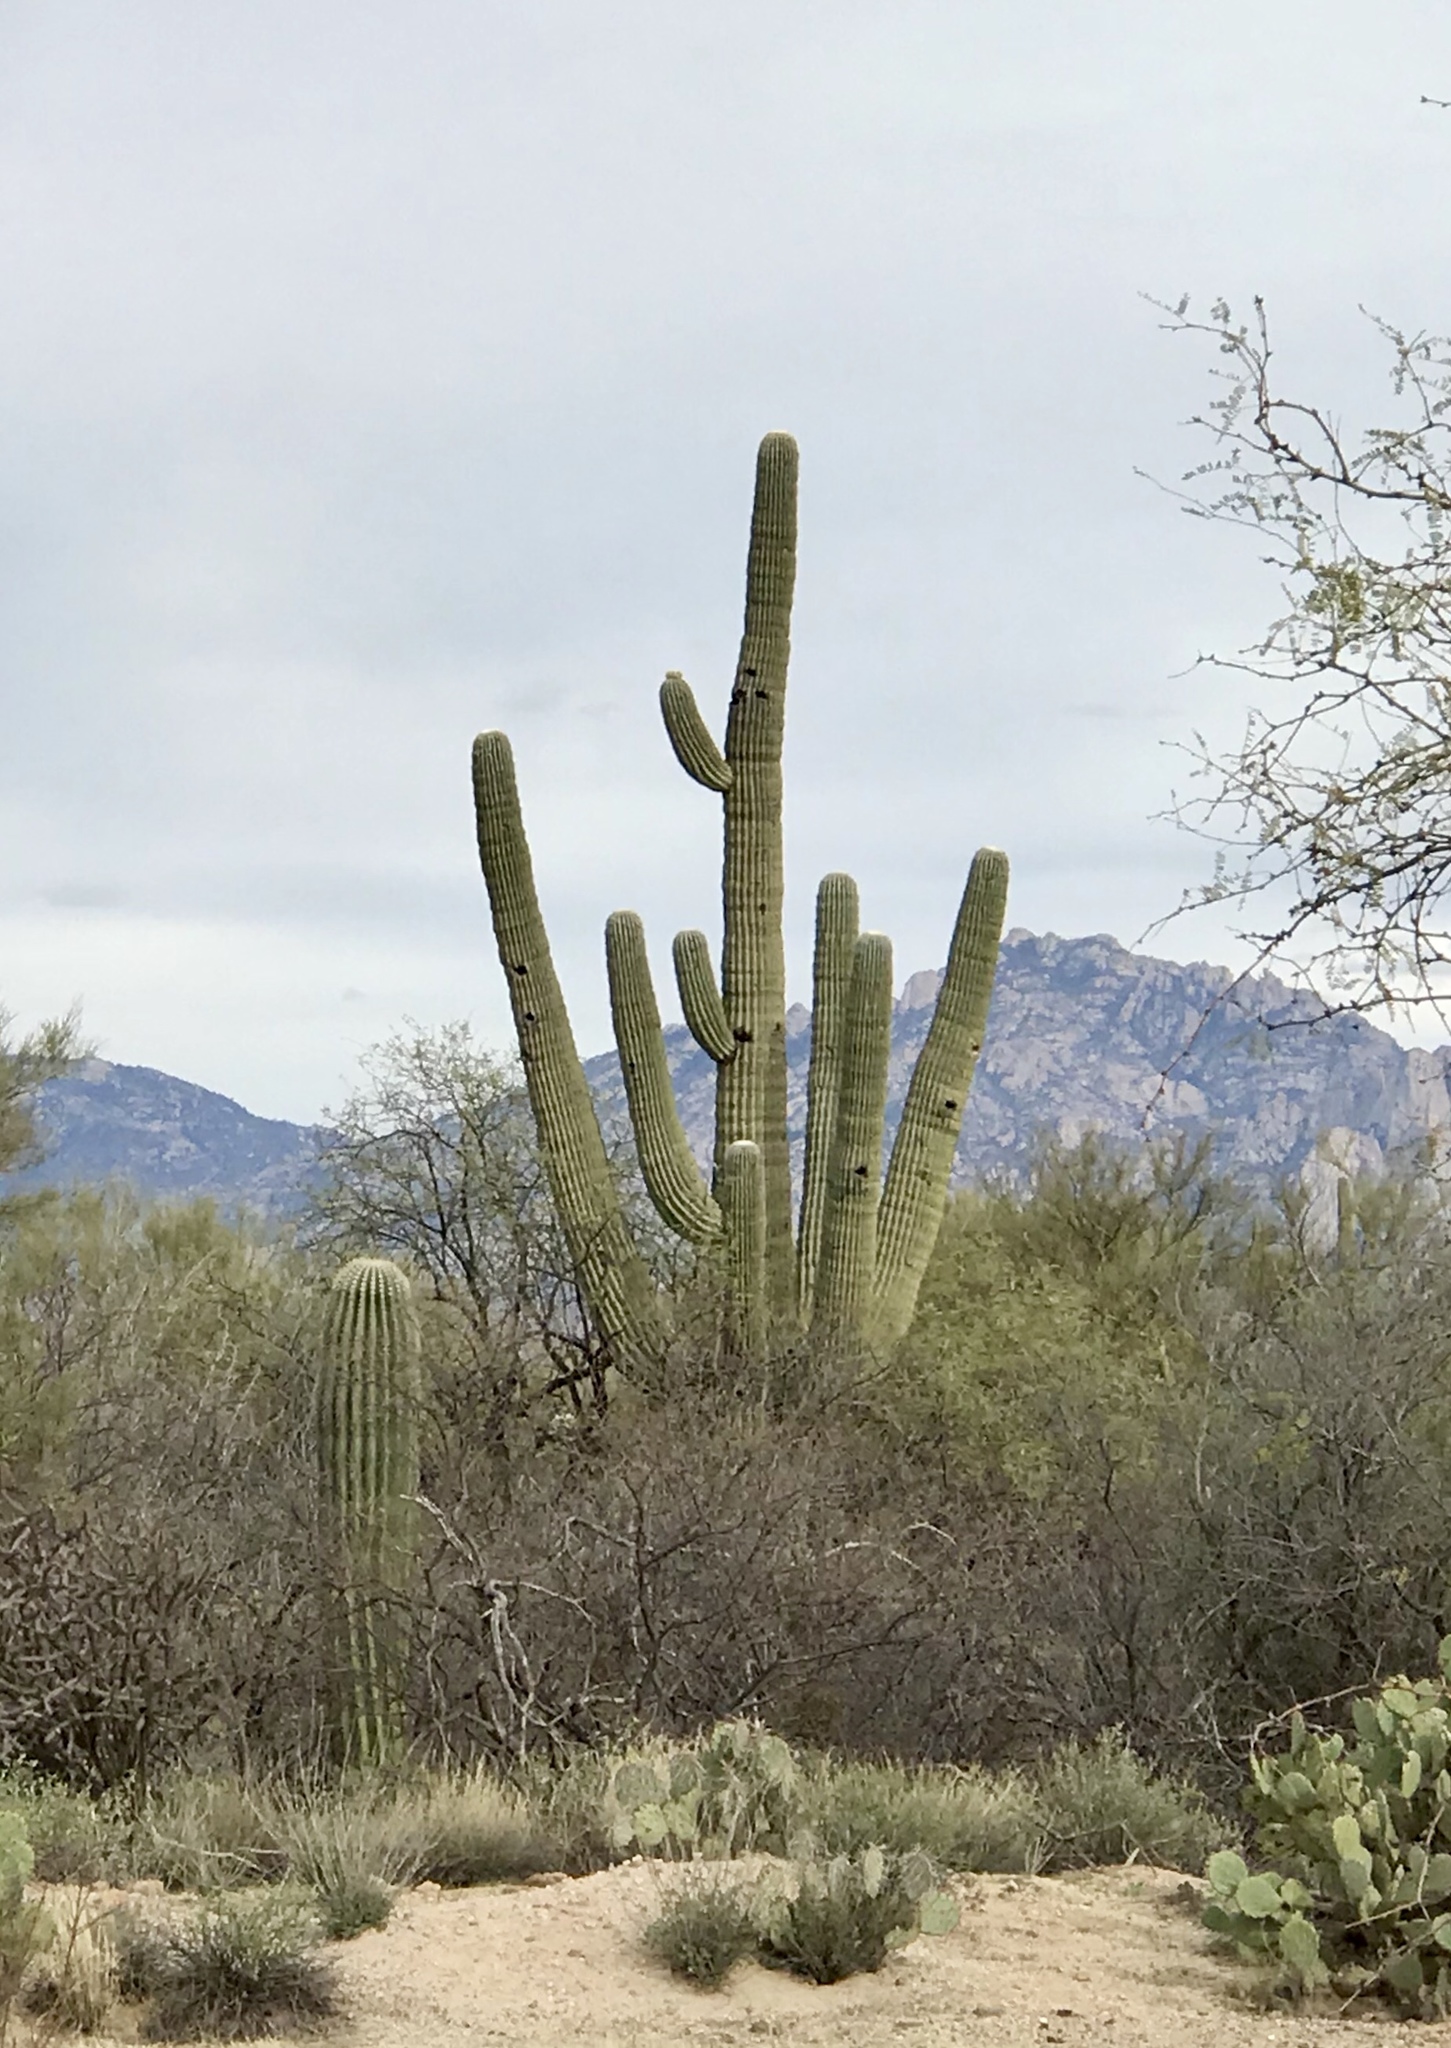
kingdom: Plantae
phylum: Tracheophyta
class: Magnoliopsida
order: Caryophyllales
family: Cactaceae
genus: Carnegiea
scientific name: Carnegiea gigantea
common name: Saguaro
